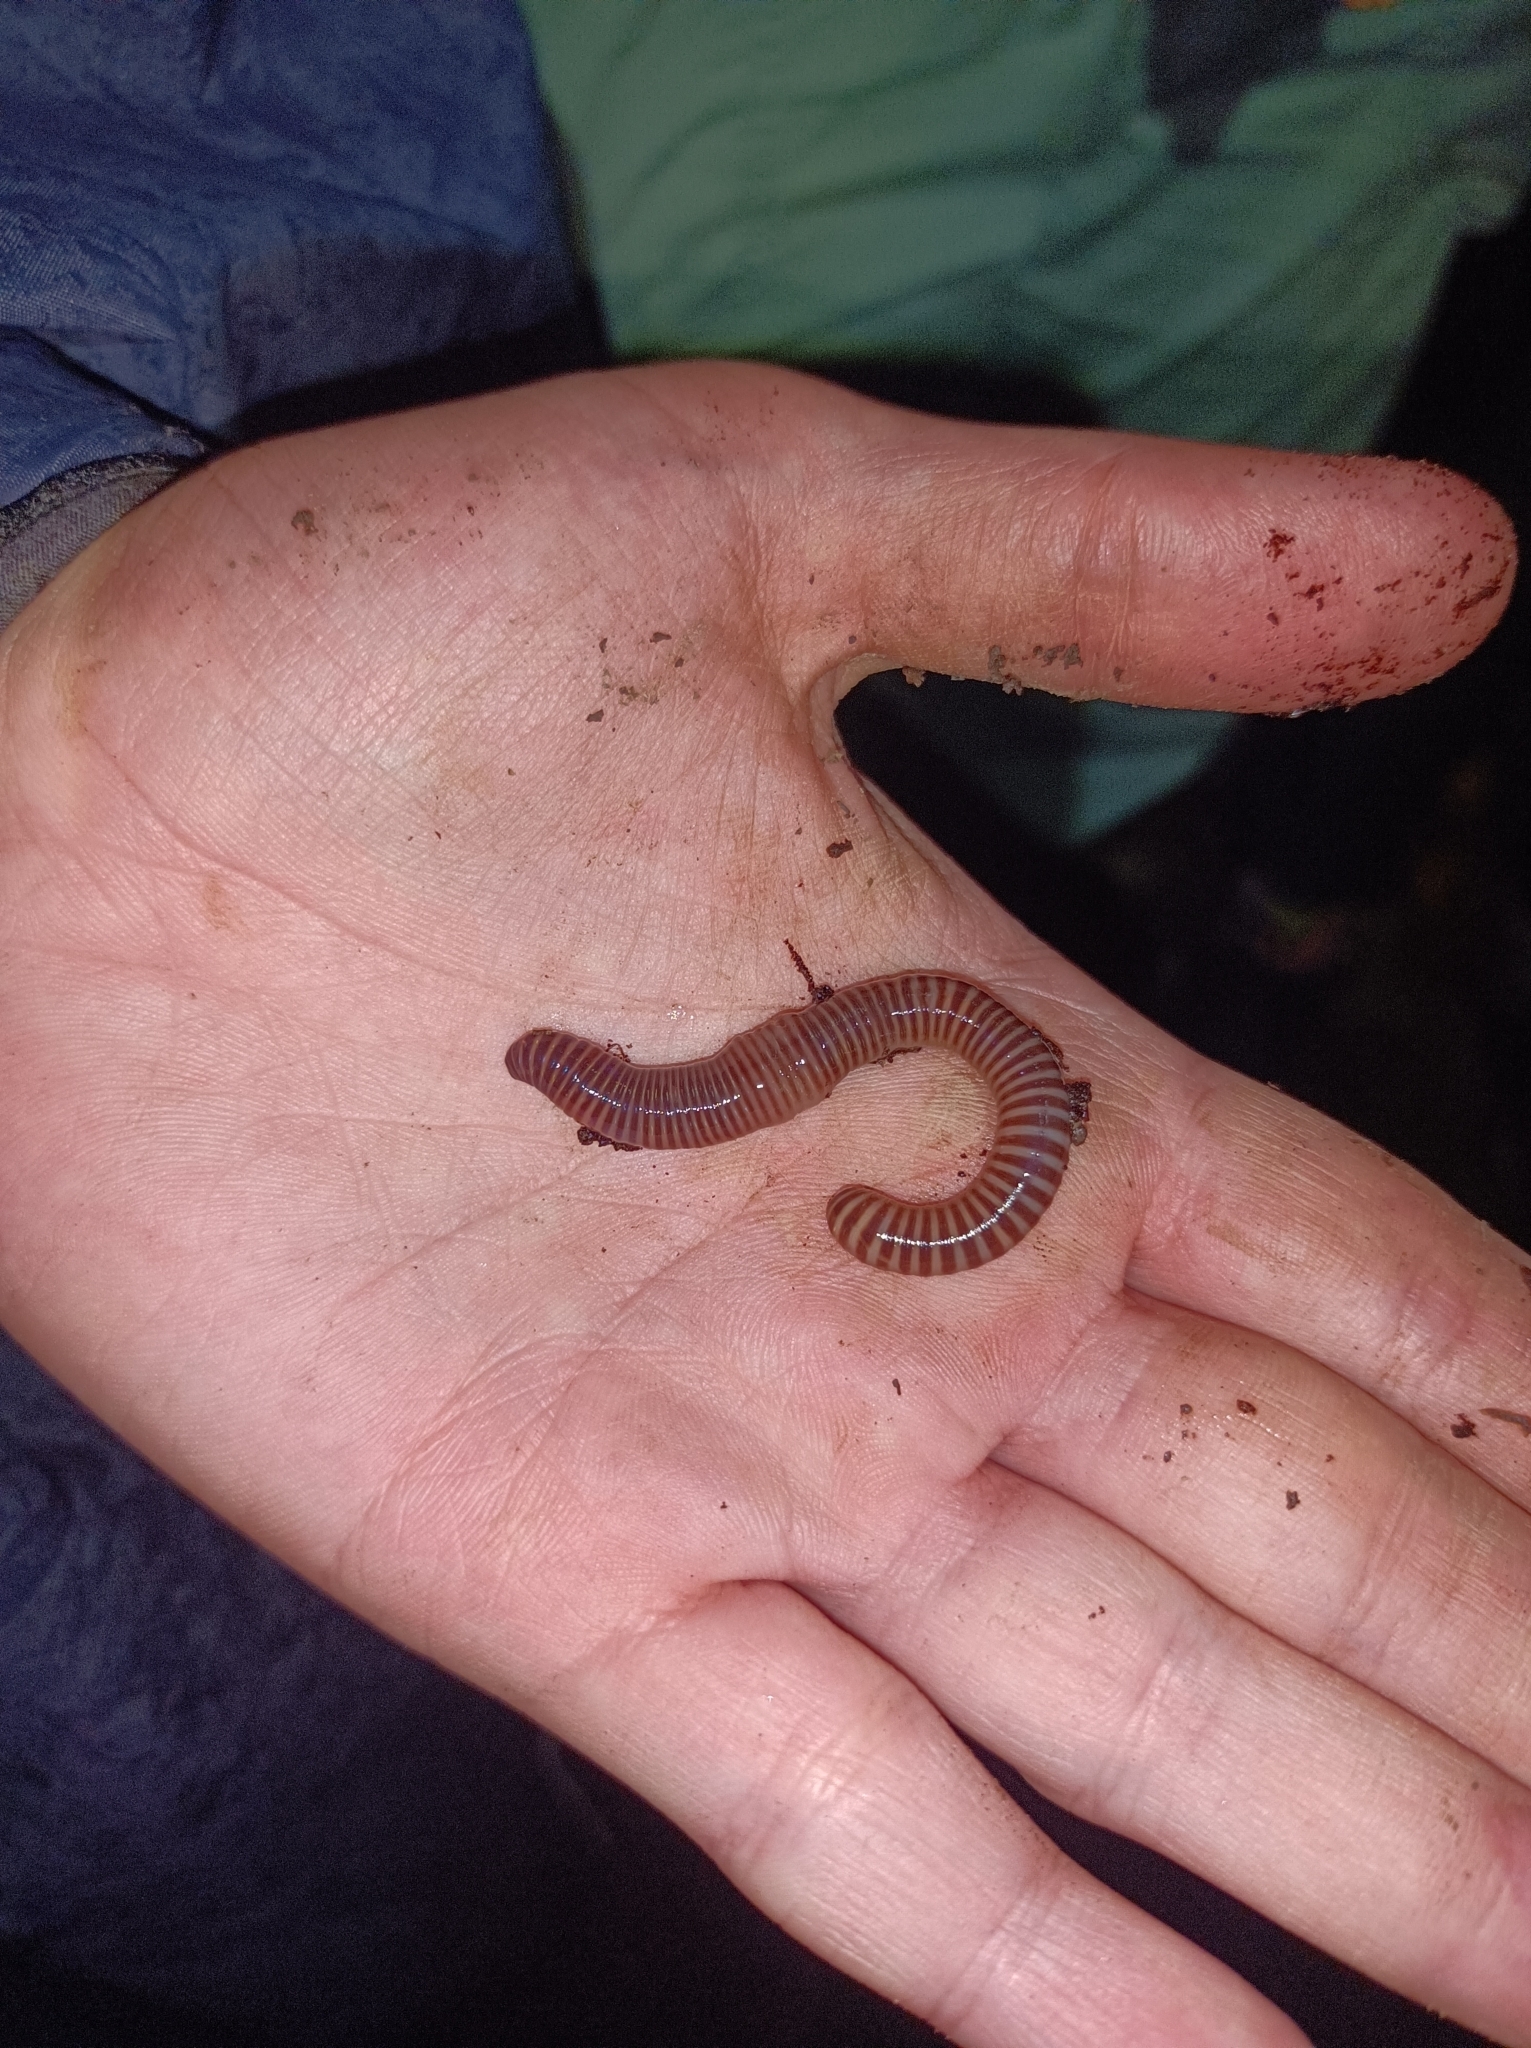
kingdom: Animalia
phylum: Annelida
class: Clitellata
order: Crassiclitellata
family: Lumbricidae
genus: Eisenia
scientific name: Eisenia lucens
